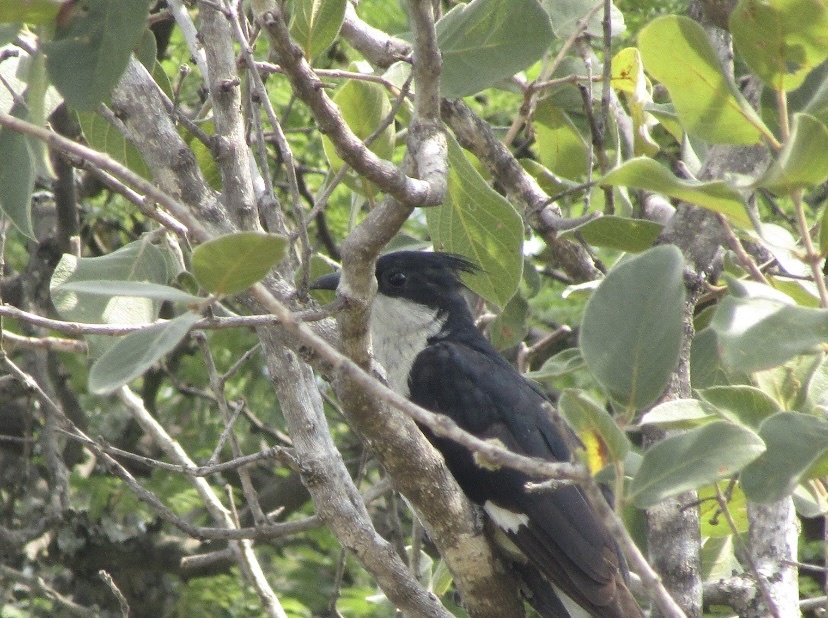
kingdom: Animalia
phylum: Chordata
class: Aves
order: Cuculiformes
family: Cuculidae
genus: Clamator
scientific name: Clamator jacobinus
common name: Jacobin cuckoo
